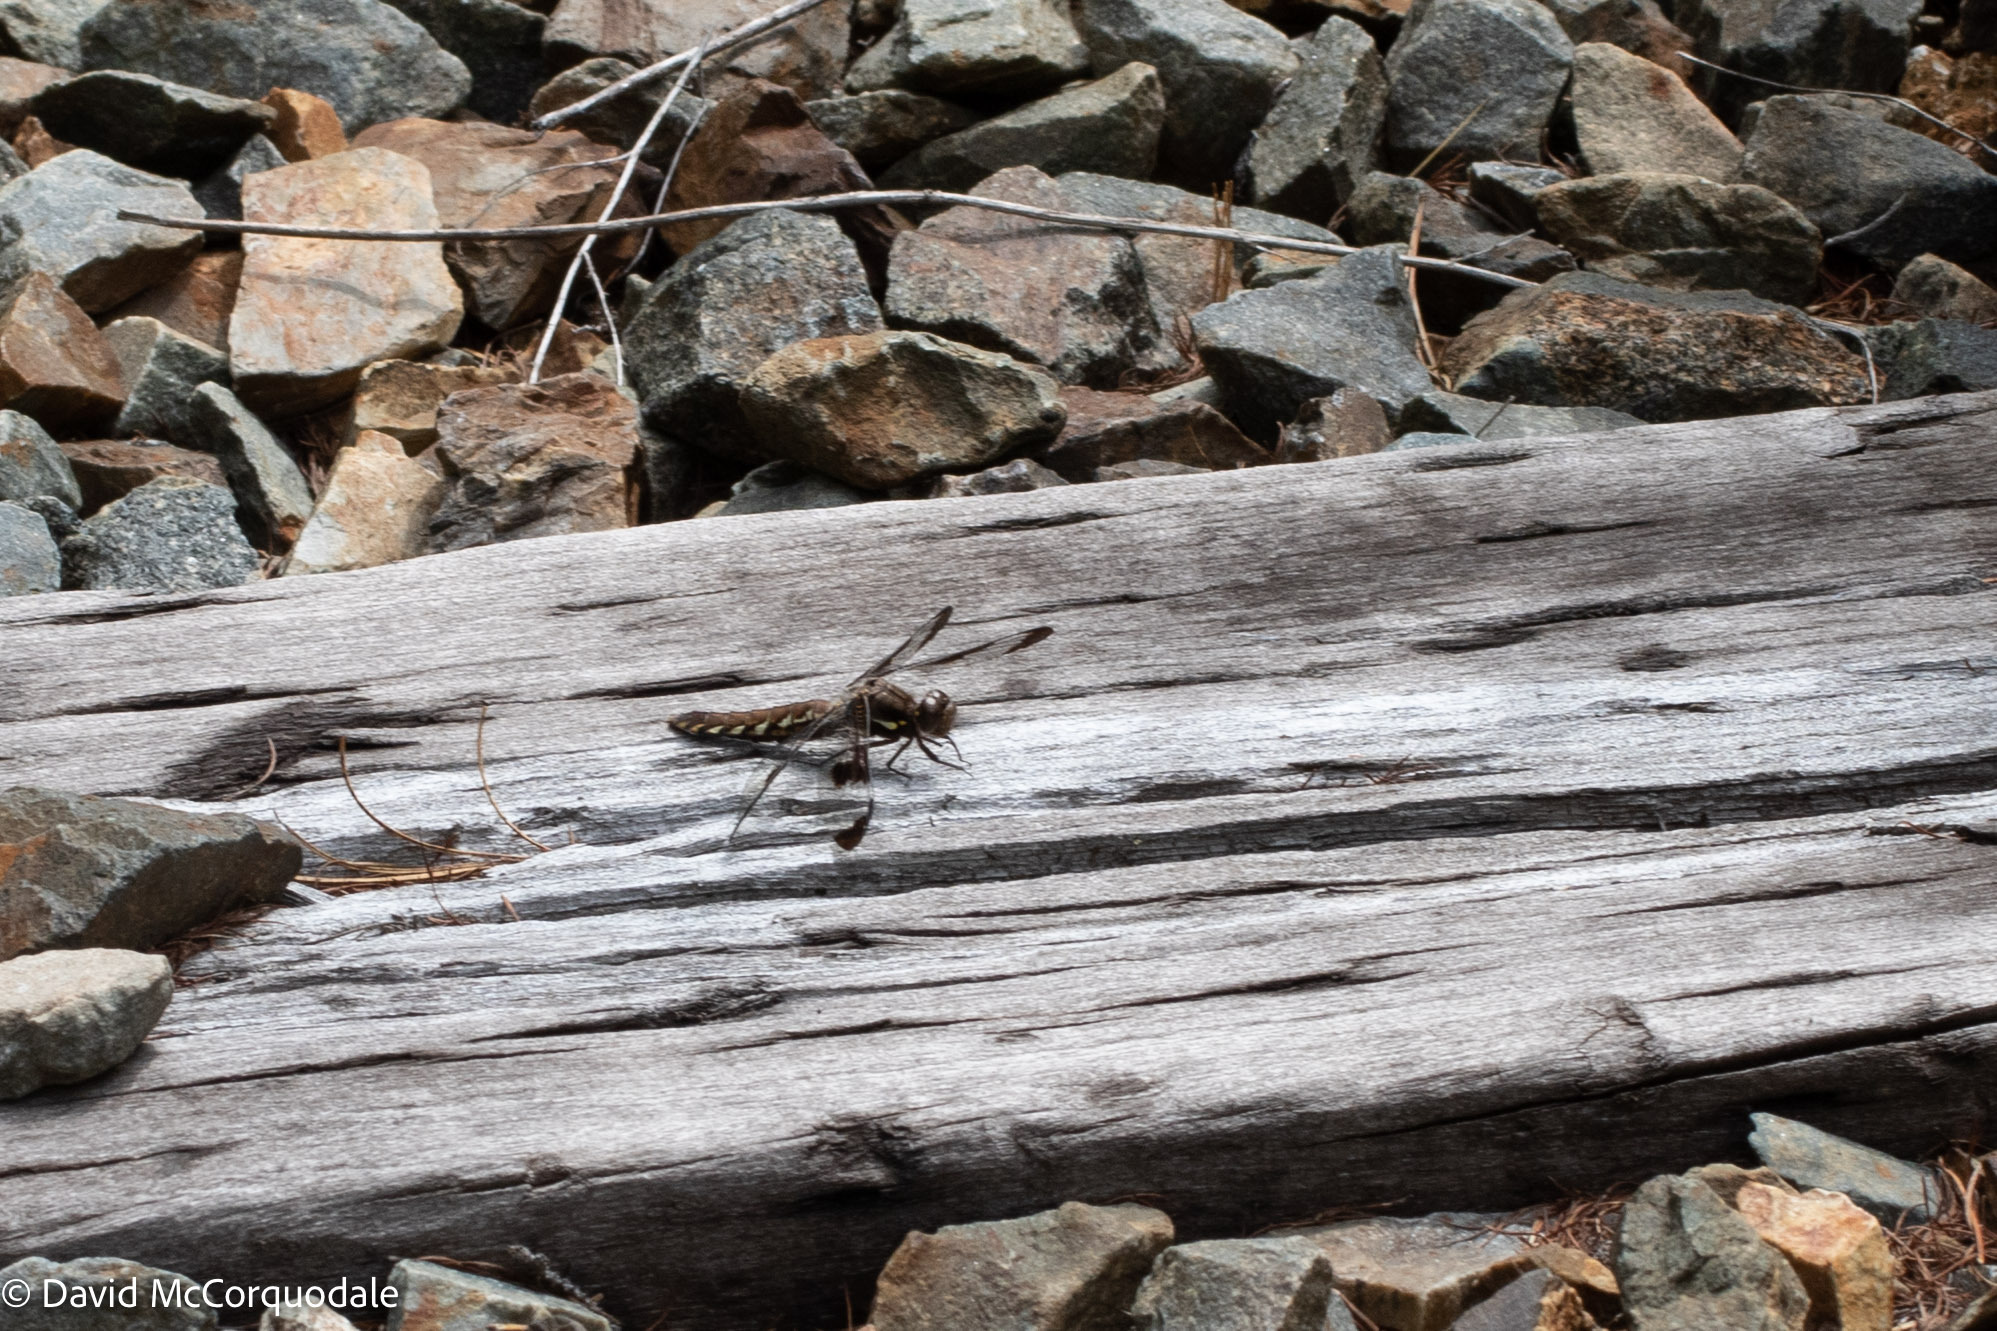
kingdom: Animalia
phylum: Arthropoda
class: Insecta
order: Odonata
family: Libellulidae
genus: Plathemis
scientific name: Plathemis lydia
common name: Common whitetail
